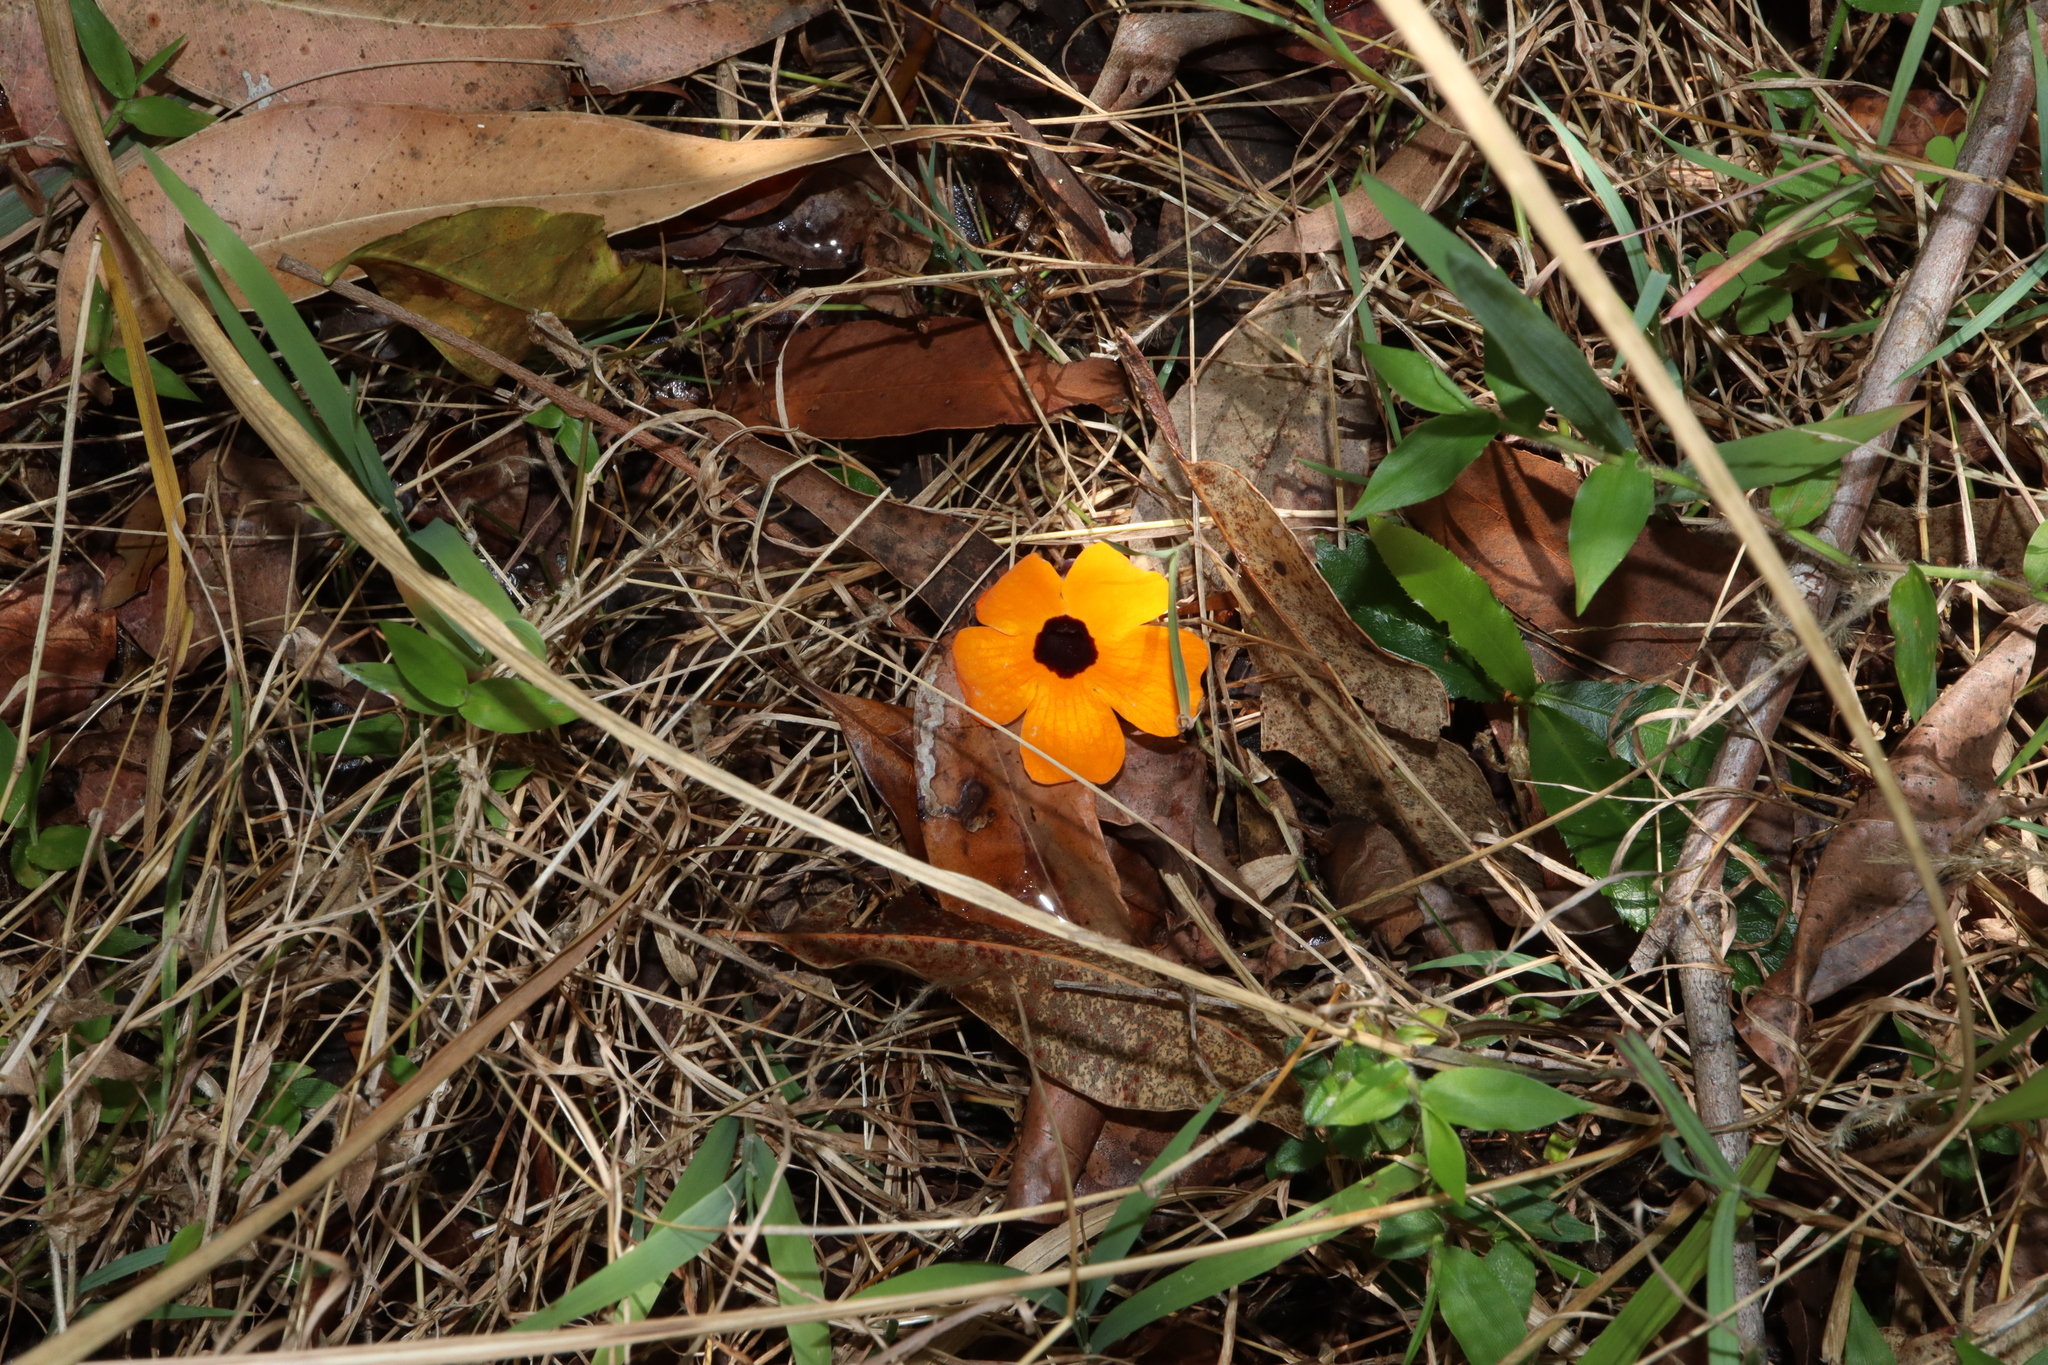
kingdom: Plantae
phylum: Tracheophyta
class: Magnoliopsida
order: Lamiales
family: Acanthaceae
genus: Thunbergia
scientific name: Thunbergia alata
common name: Blackeyed susan vine
